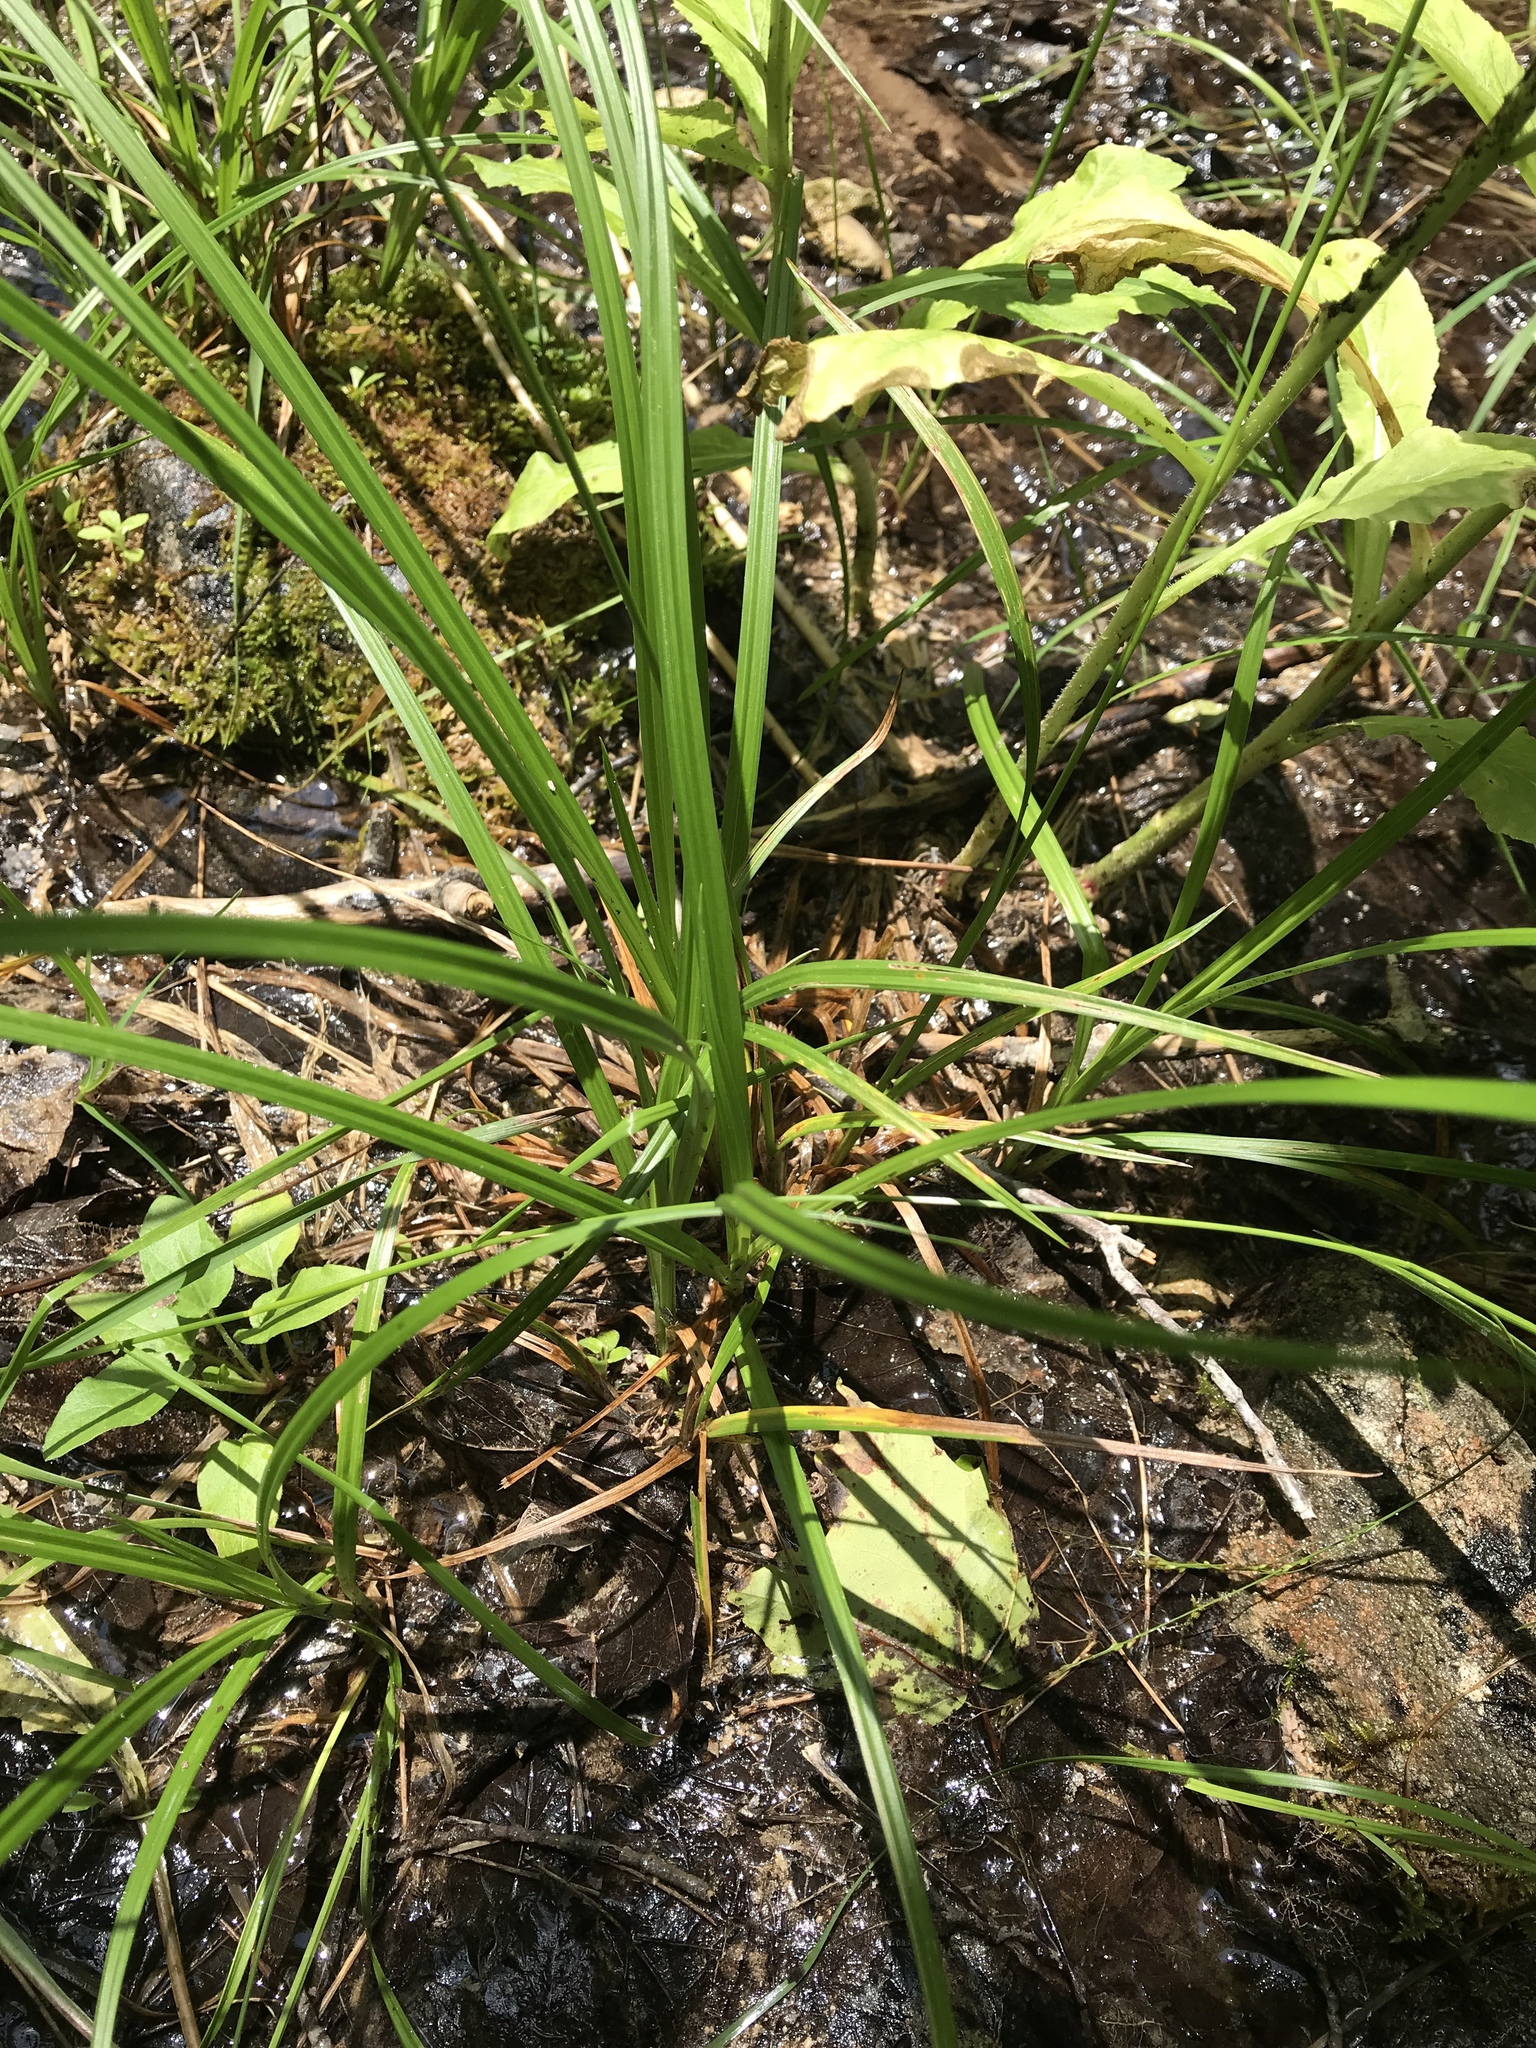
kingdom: Plantae
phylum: Tracheophyta
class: Liliopsida
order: Poales
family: Cyperaceae
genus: Carex
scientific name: Carex flava
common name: Large yellow-sedge
